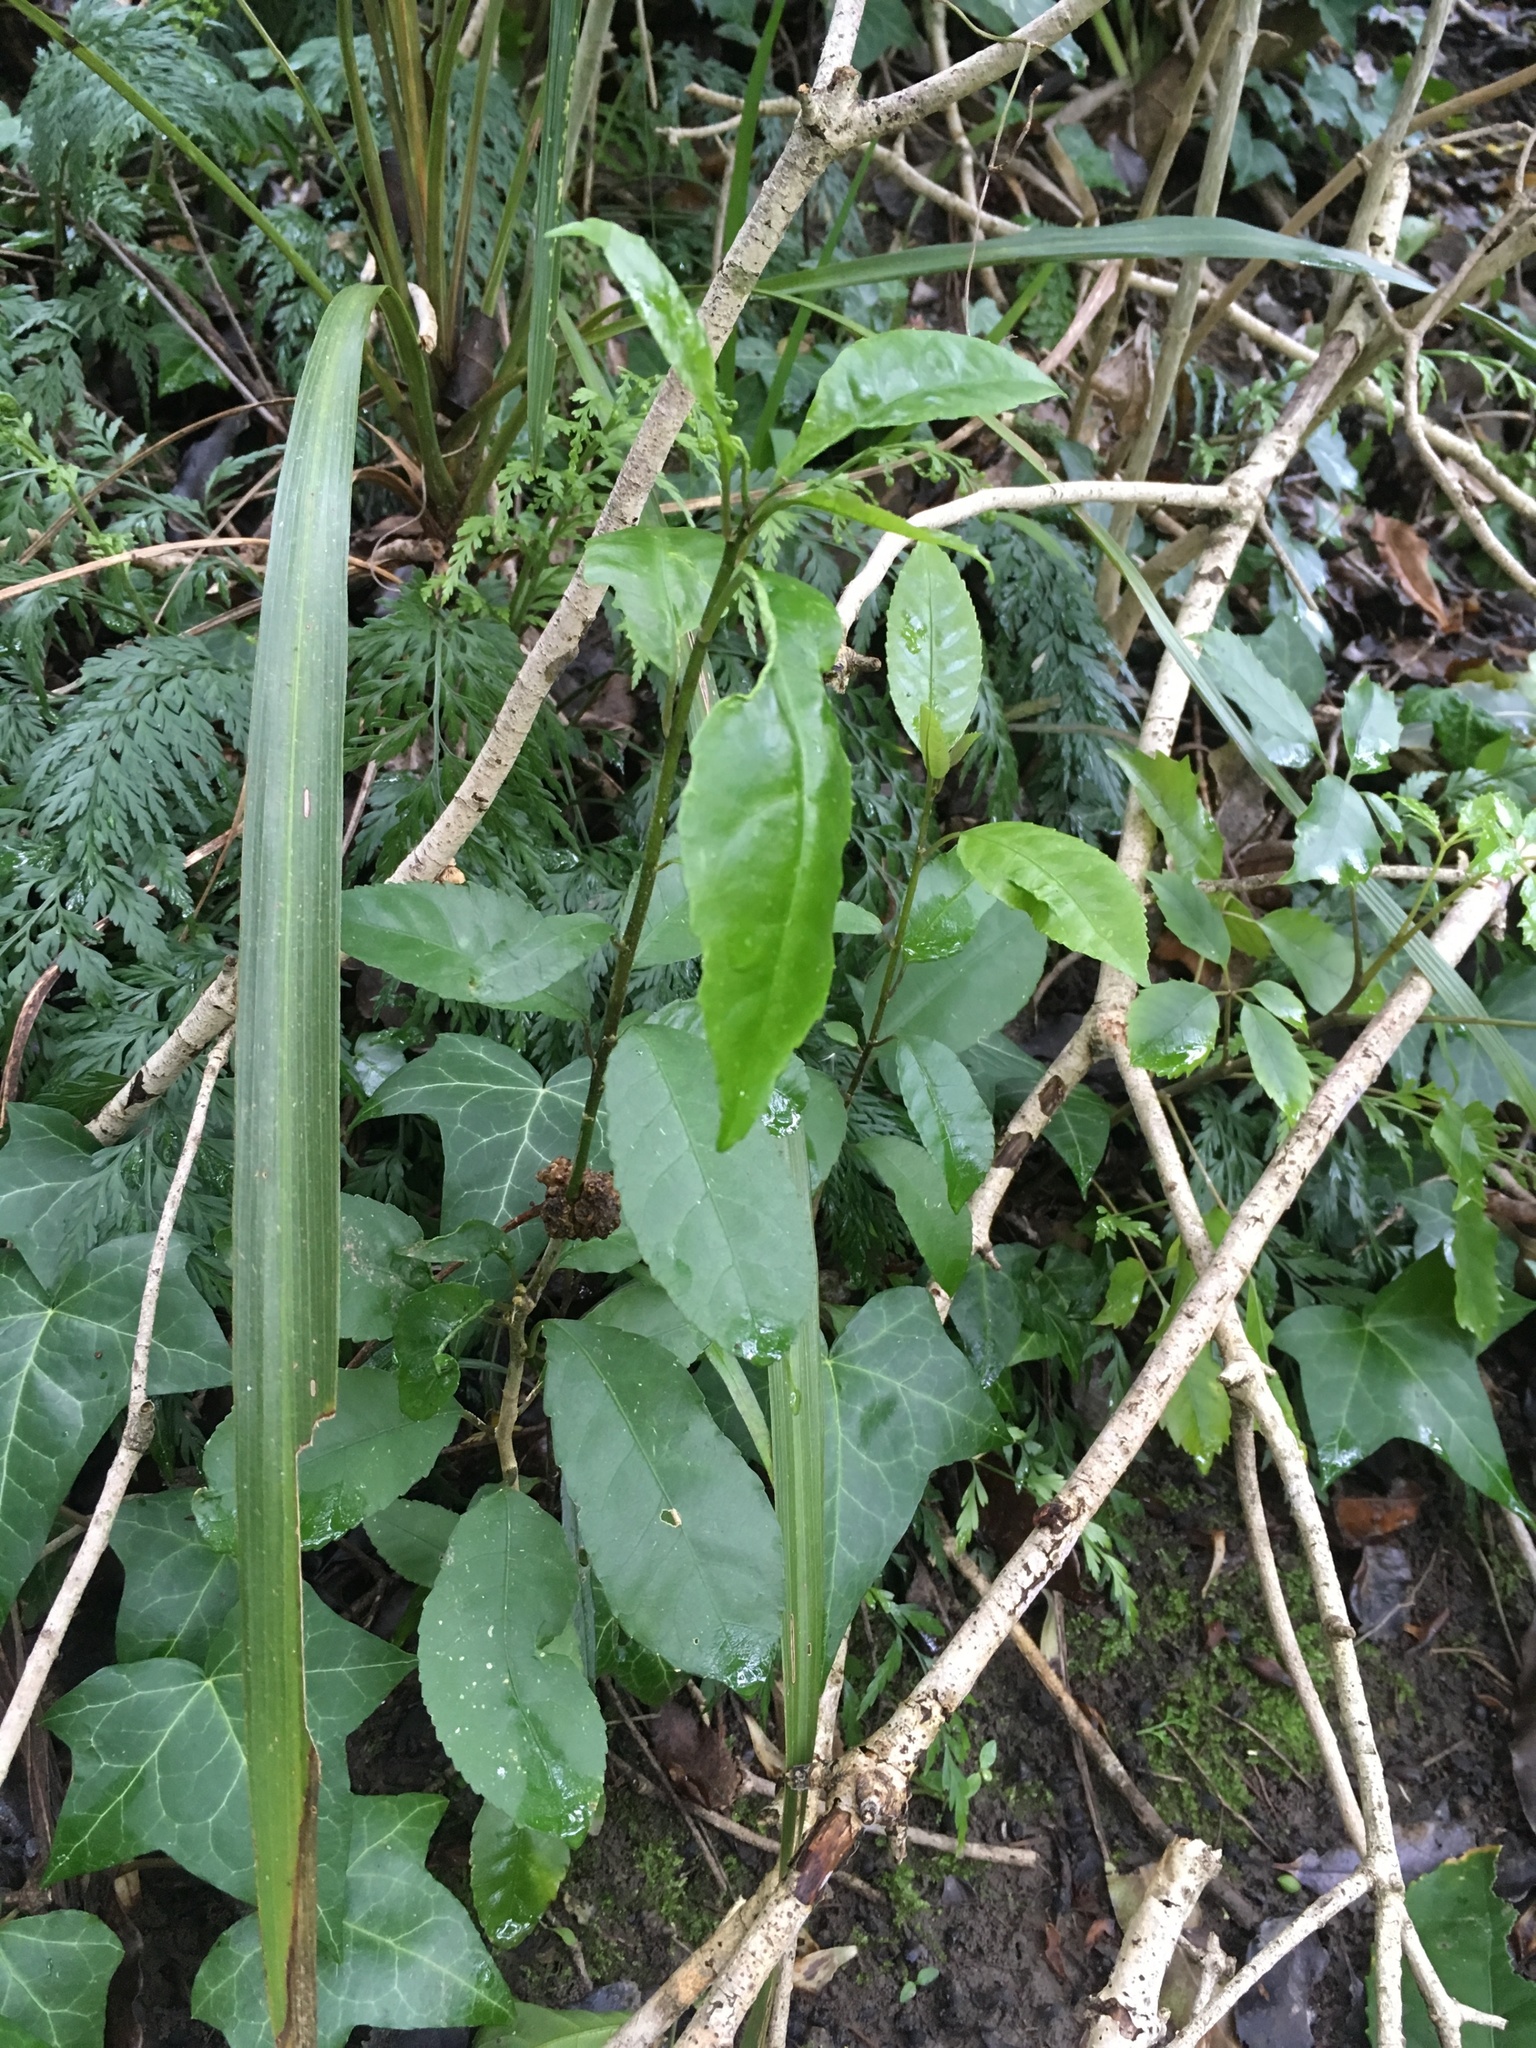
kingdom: Plantae
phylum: Tracheophyta
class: Magnoliopsida
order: Malpighiales
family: Violaceae
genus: Melicytus
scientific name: Melicytus ramiflorus
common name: Mahoe
